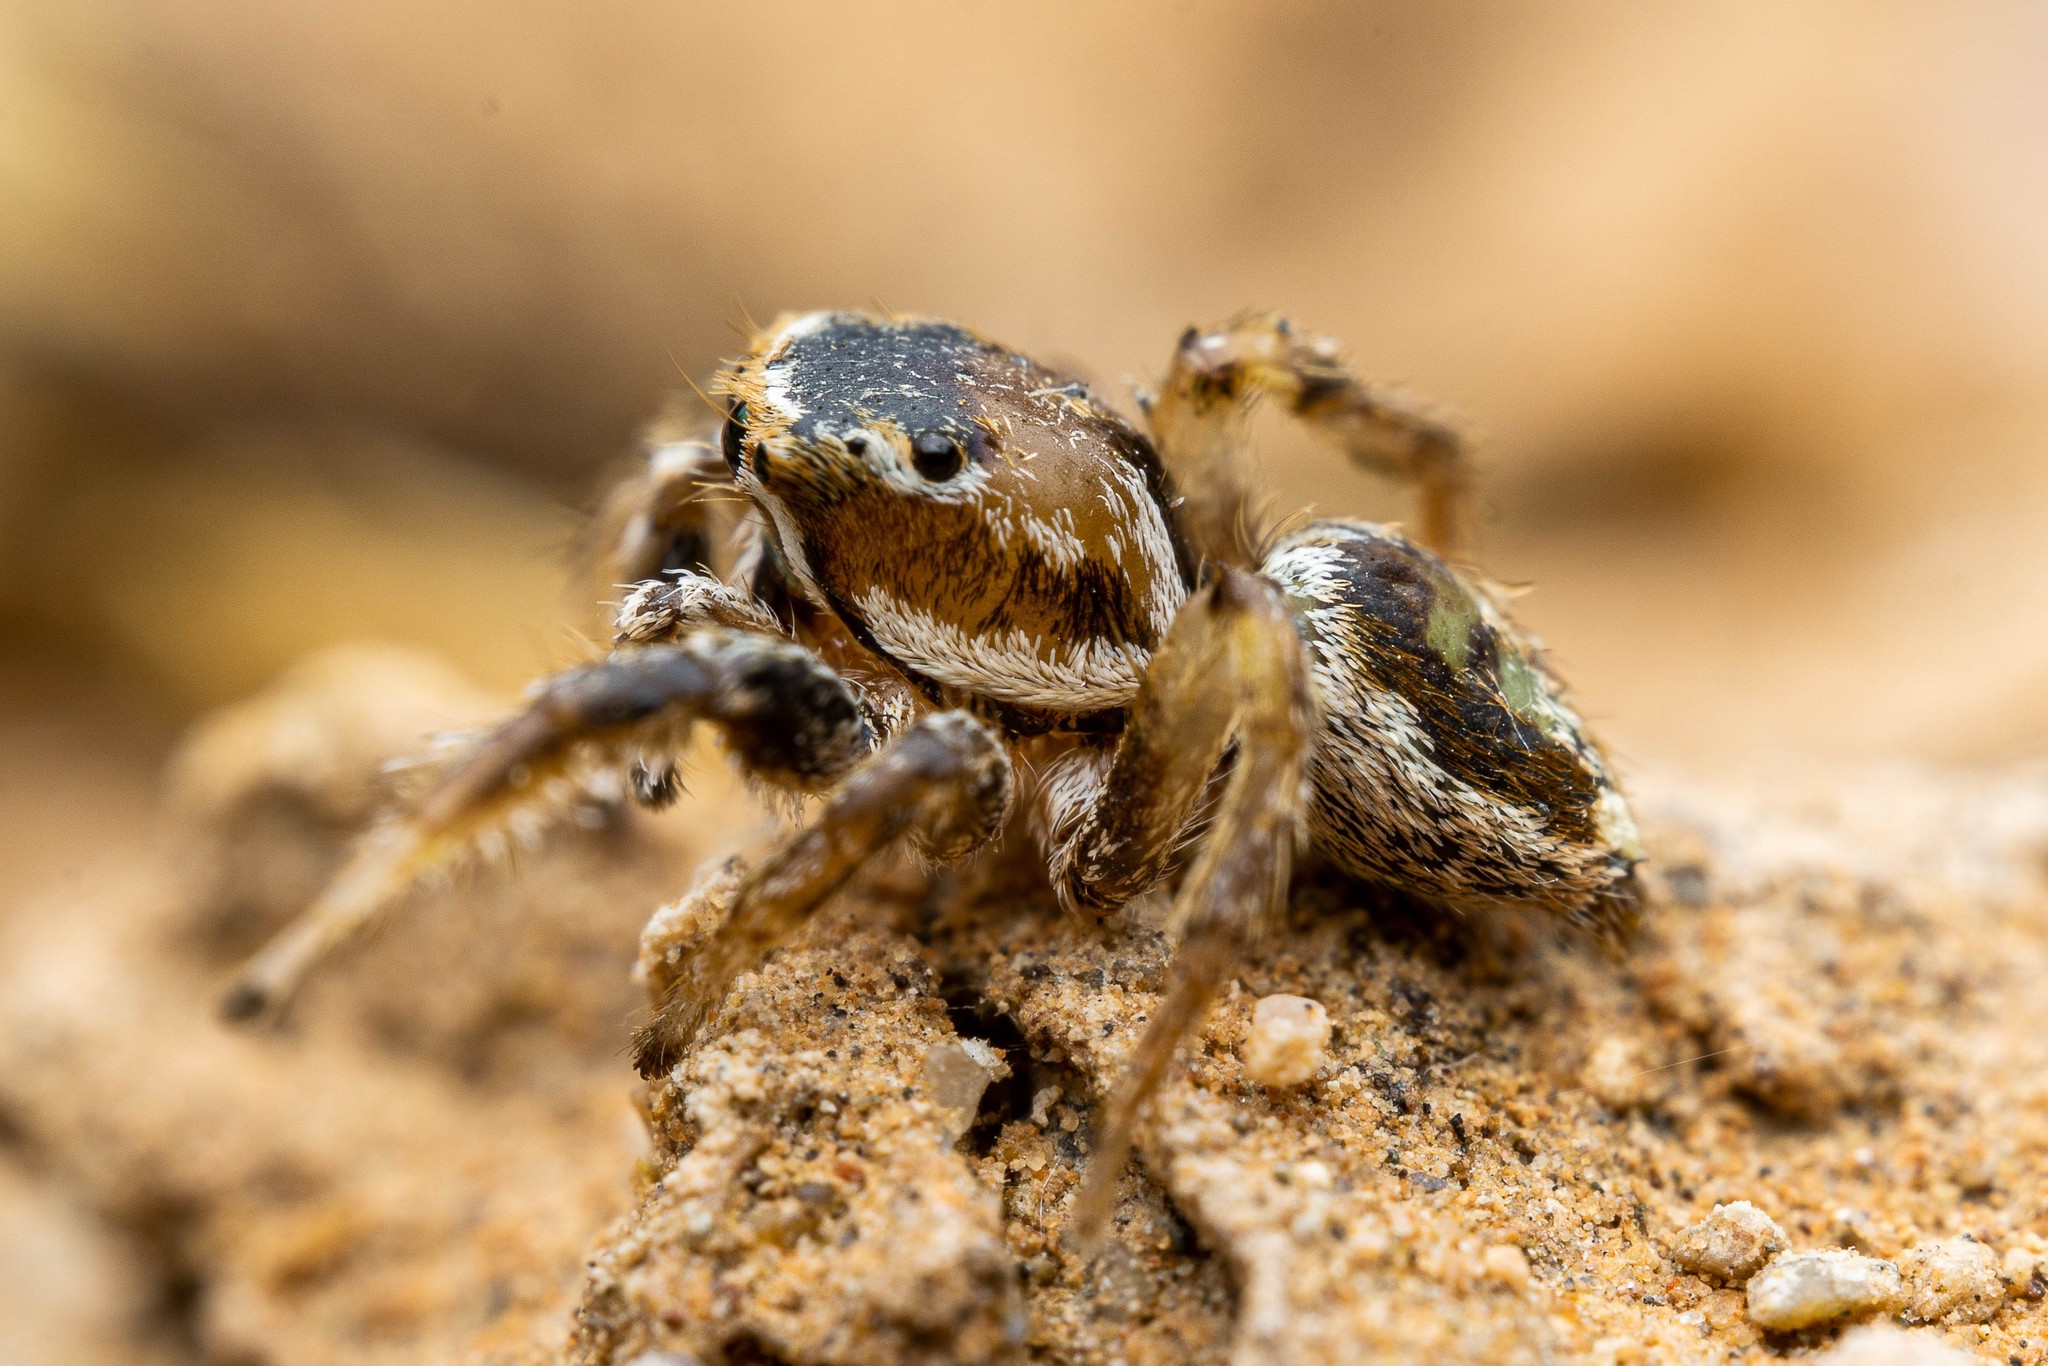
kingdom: Animalia
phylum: Arthropoda
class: Arachnida
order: Araneae
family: Salticidae
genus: Habronattus
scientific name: Habronattus formosus
